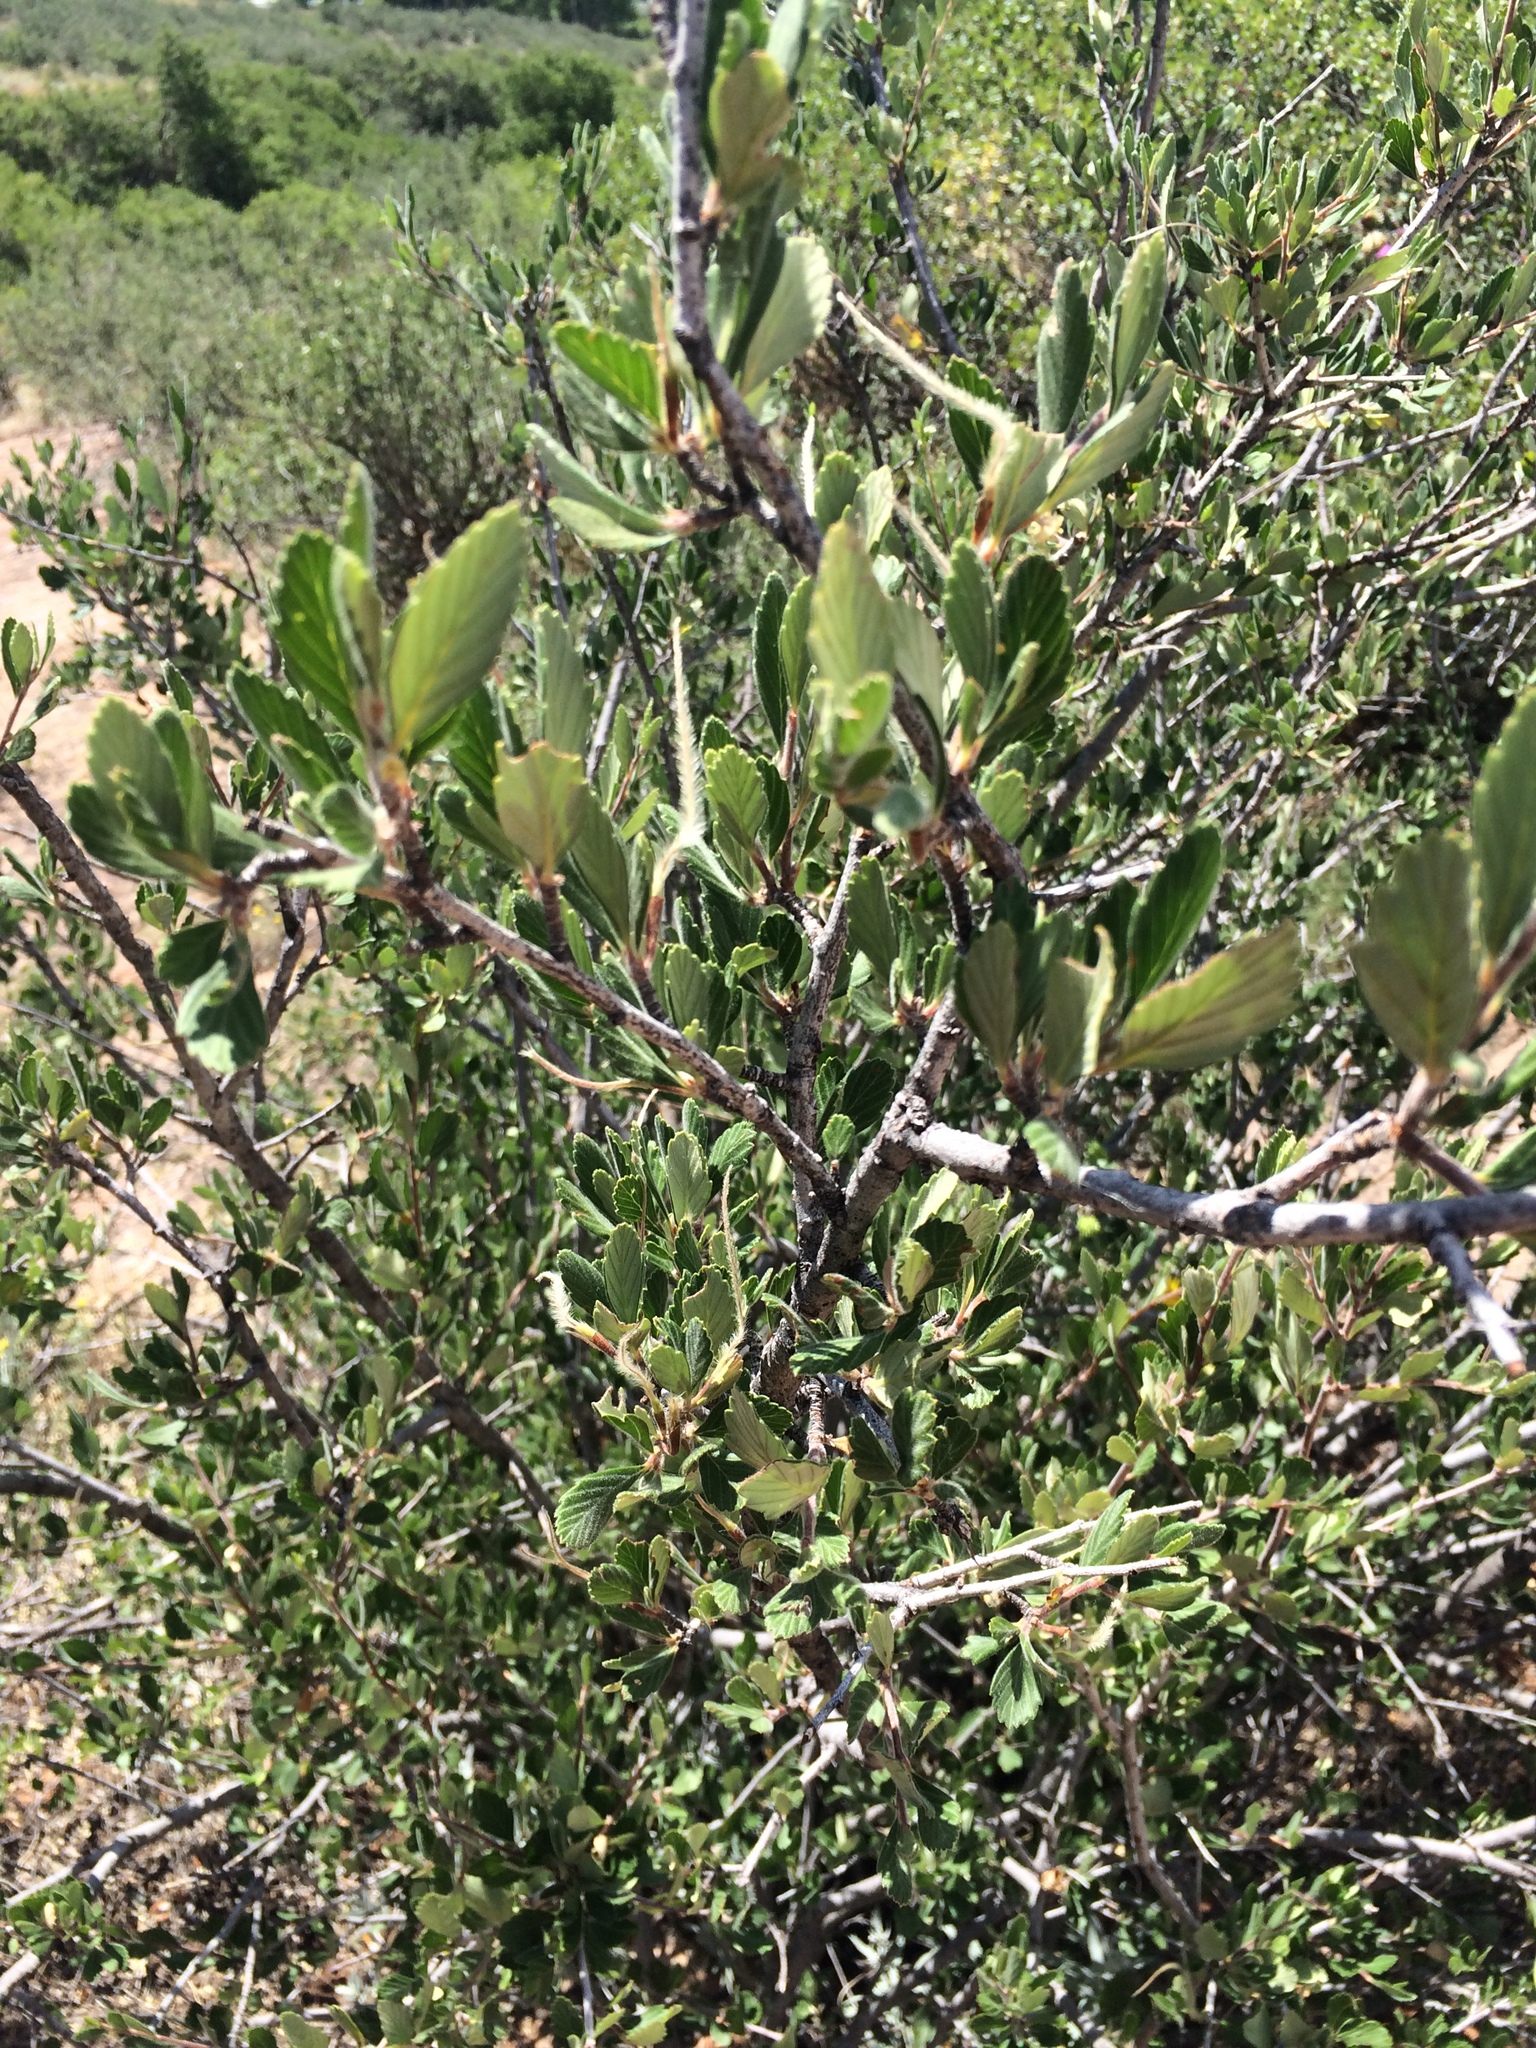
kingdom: Plantae
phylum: Tracheophyta
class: Magnoliopsida
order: Rosales
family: Rosaceae
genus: Cercocarpus
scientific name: Cercocarpus montanus
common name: Alder-leaf cercocarpus
